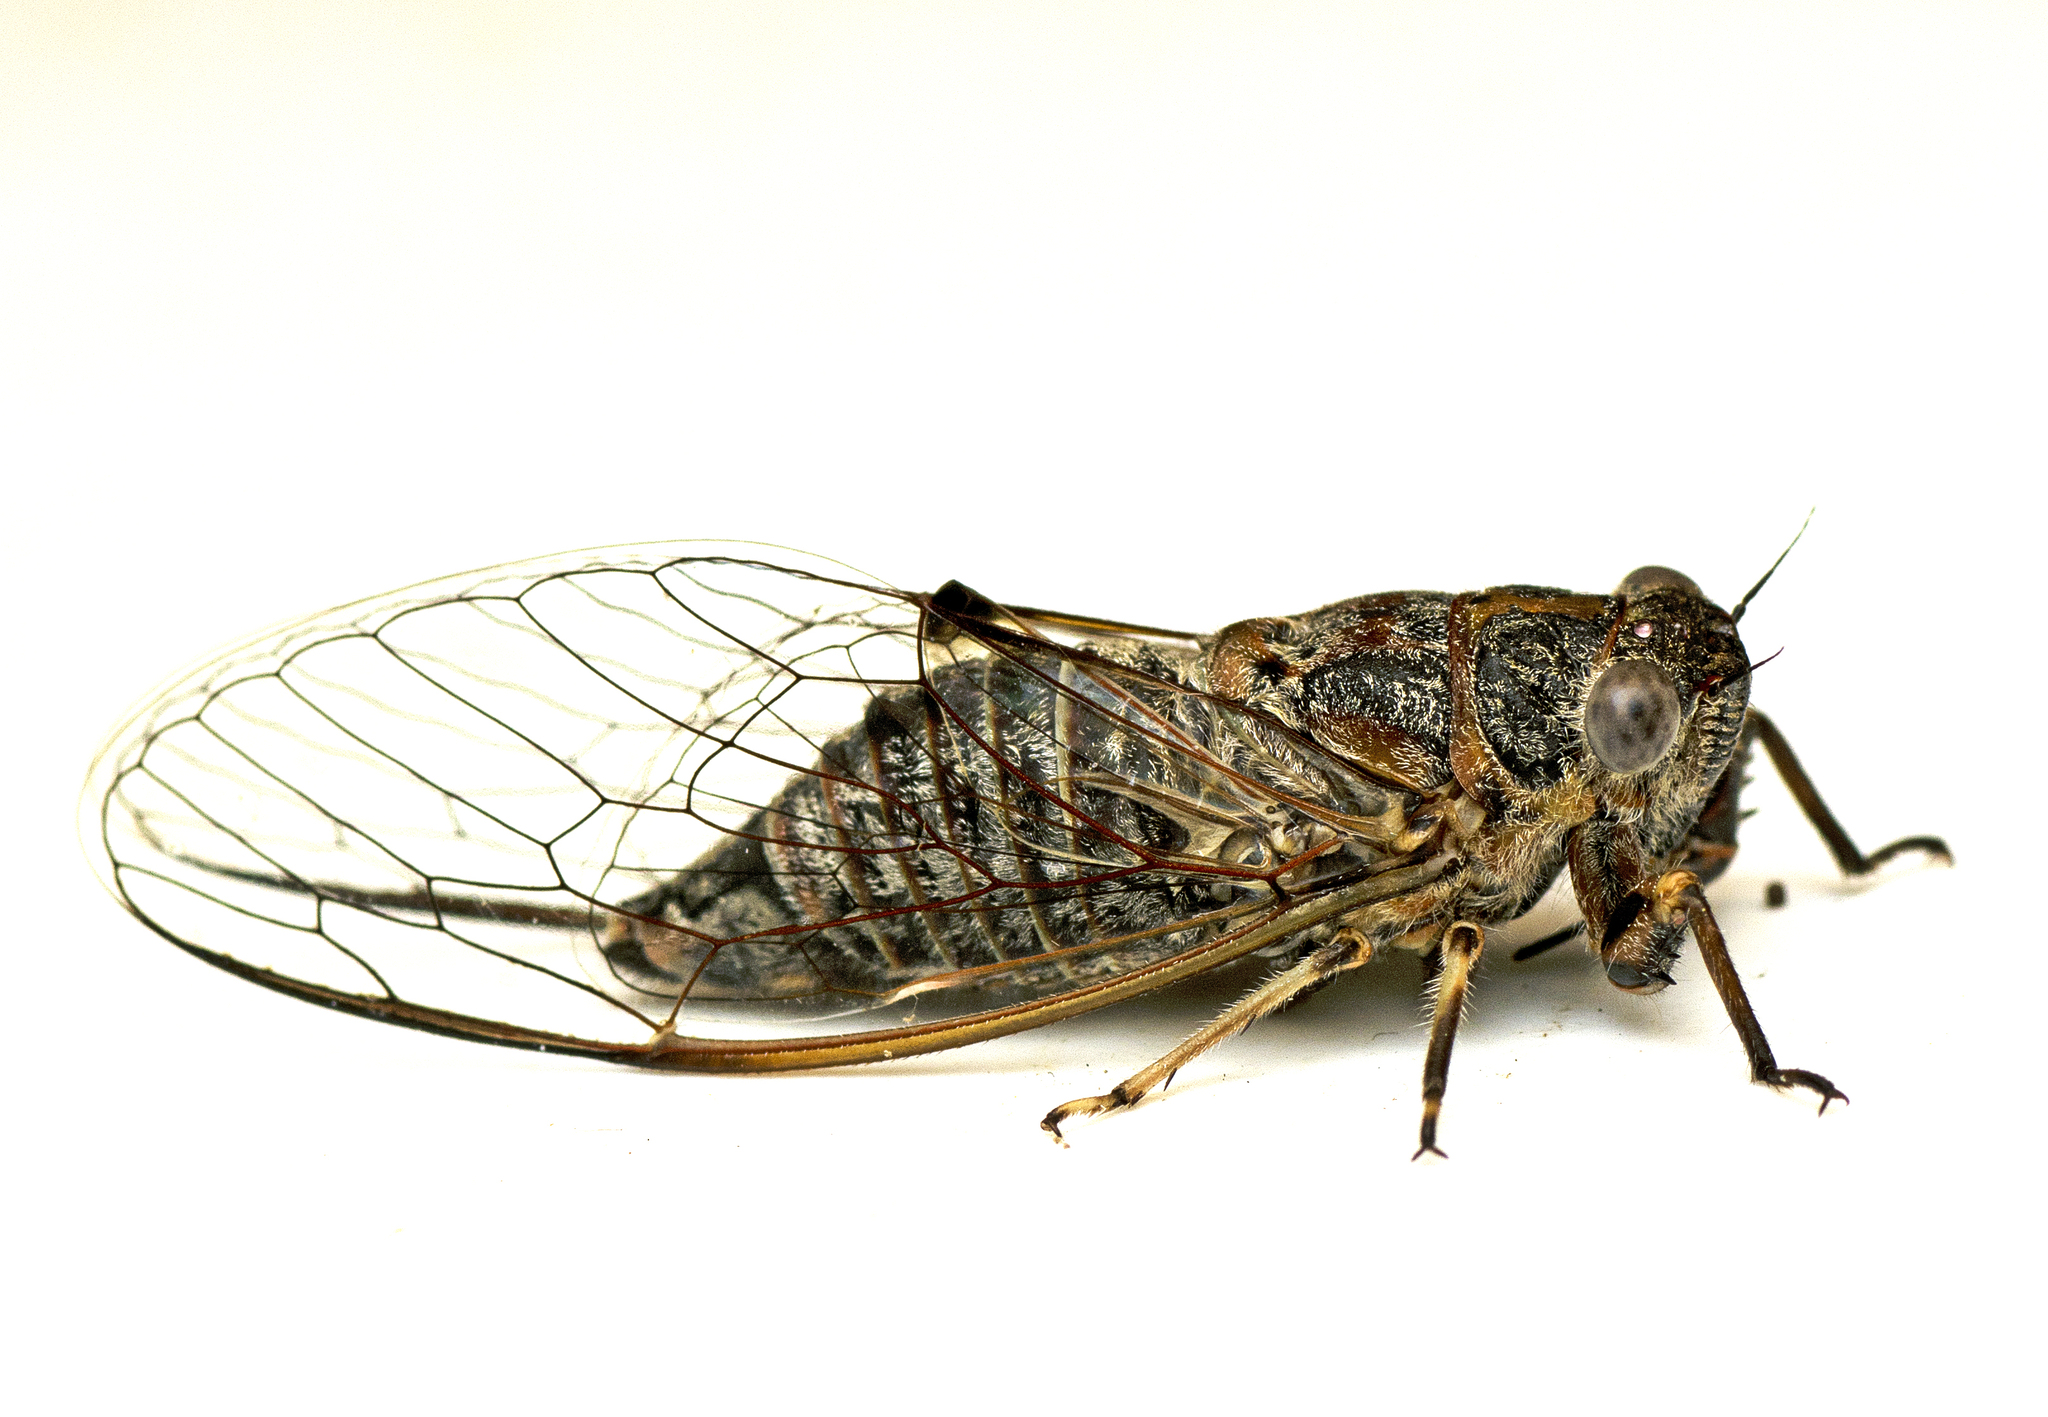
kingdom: Animalia
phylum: Arthropoda
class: Insecta
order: Hemiptera
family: Cicadidae
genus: Atrapsalta
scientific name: Atrapsalta corticina
